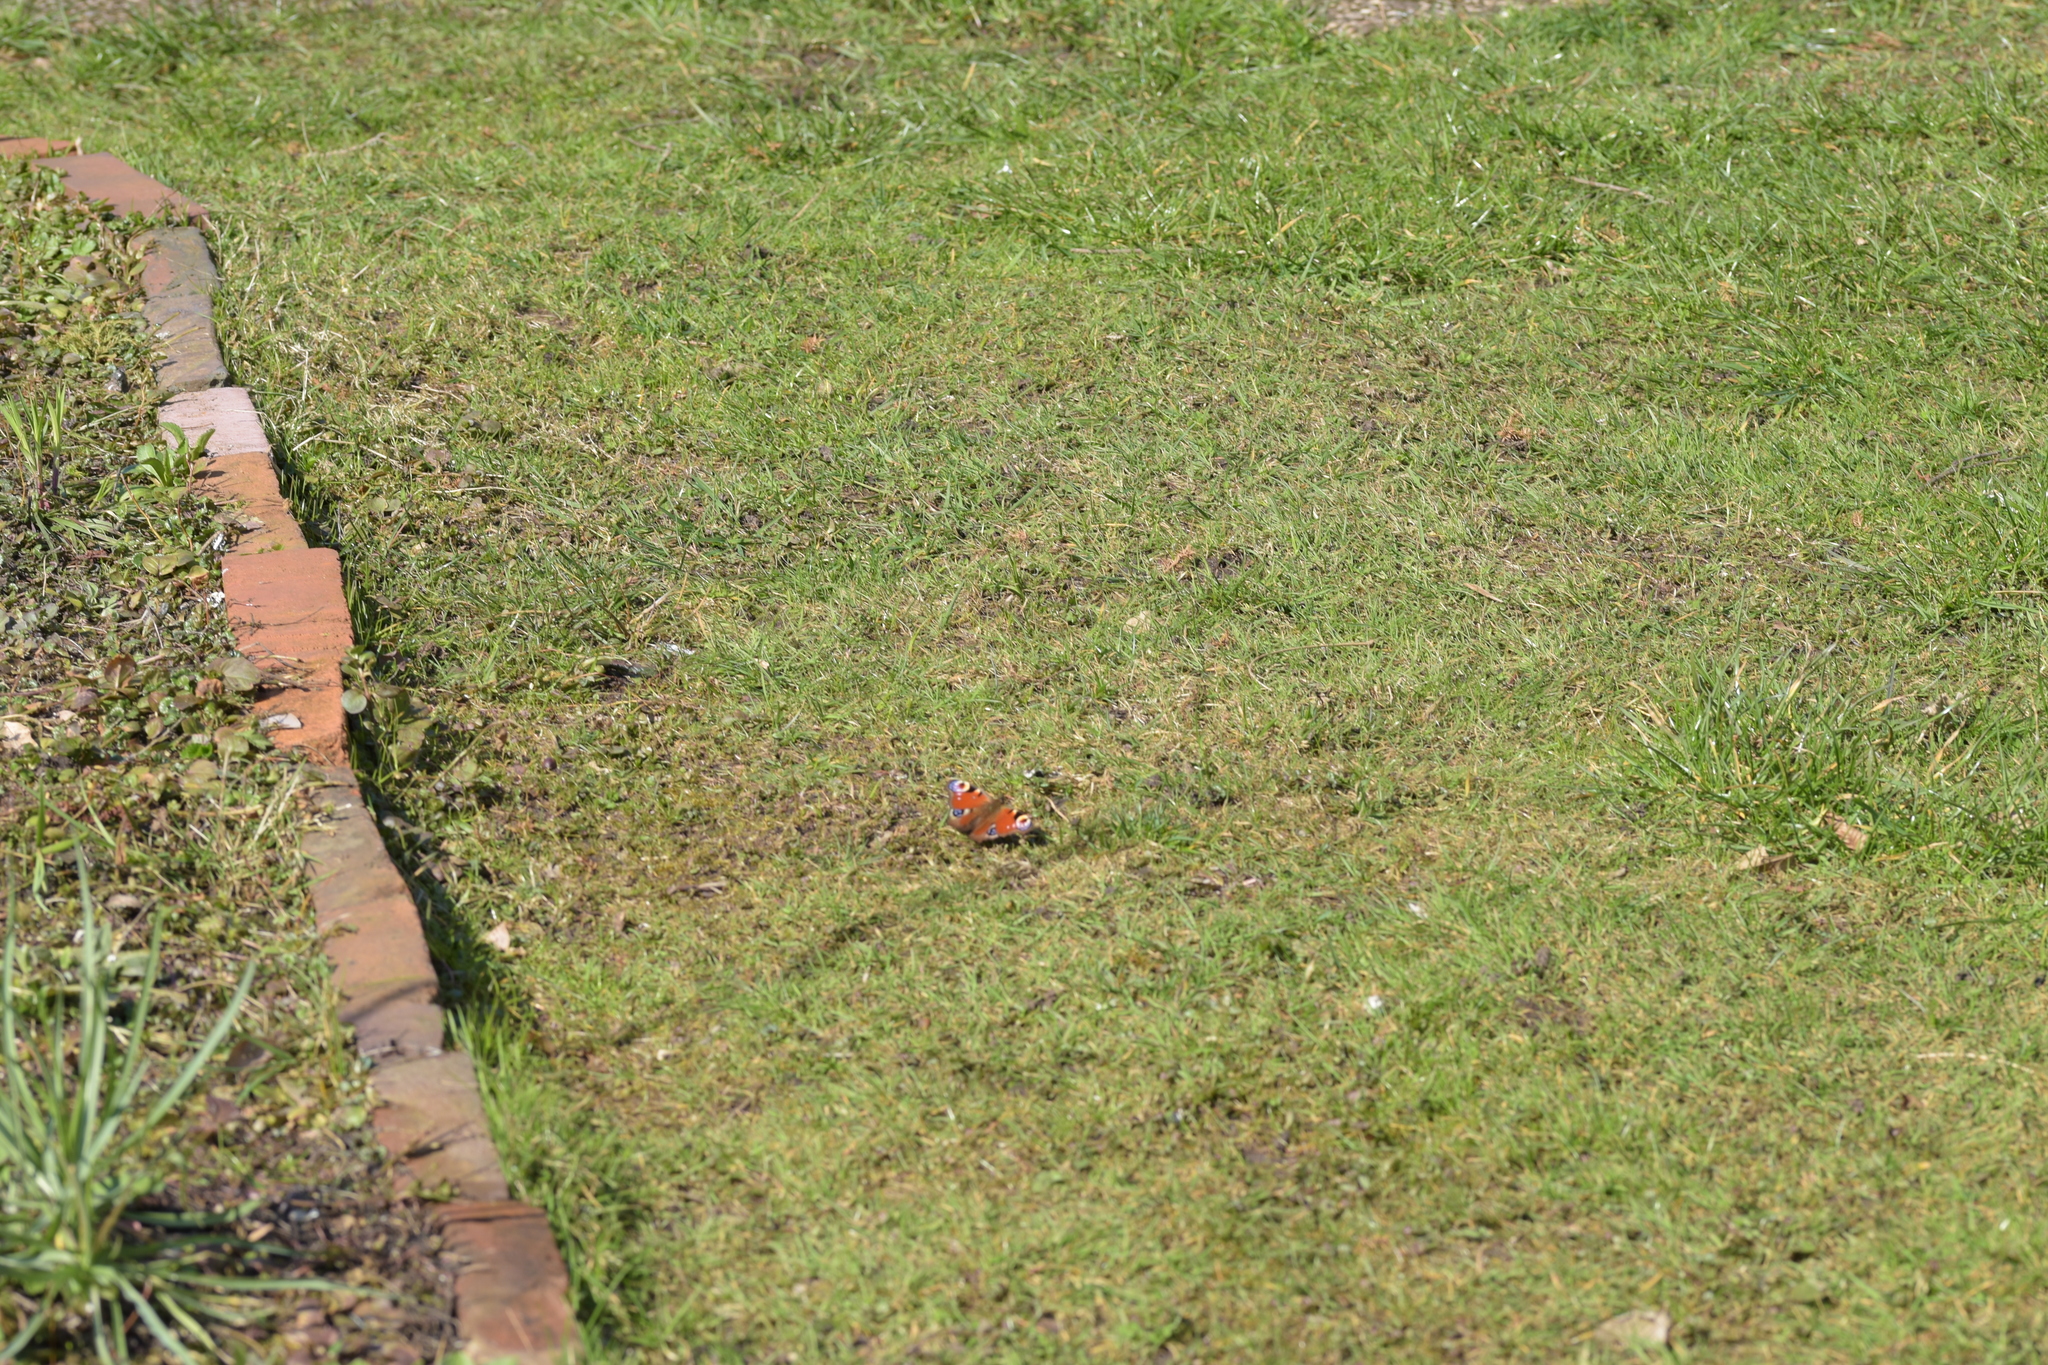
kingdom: Animalia
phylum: Arthropoda
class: Insecta
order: Lepidoptera
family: Nymphalidae
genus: Aglais
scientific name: Aglais io
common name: Peacock
